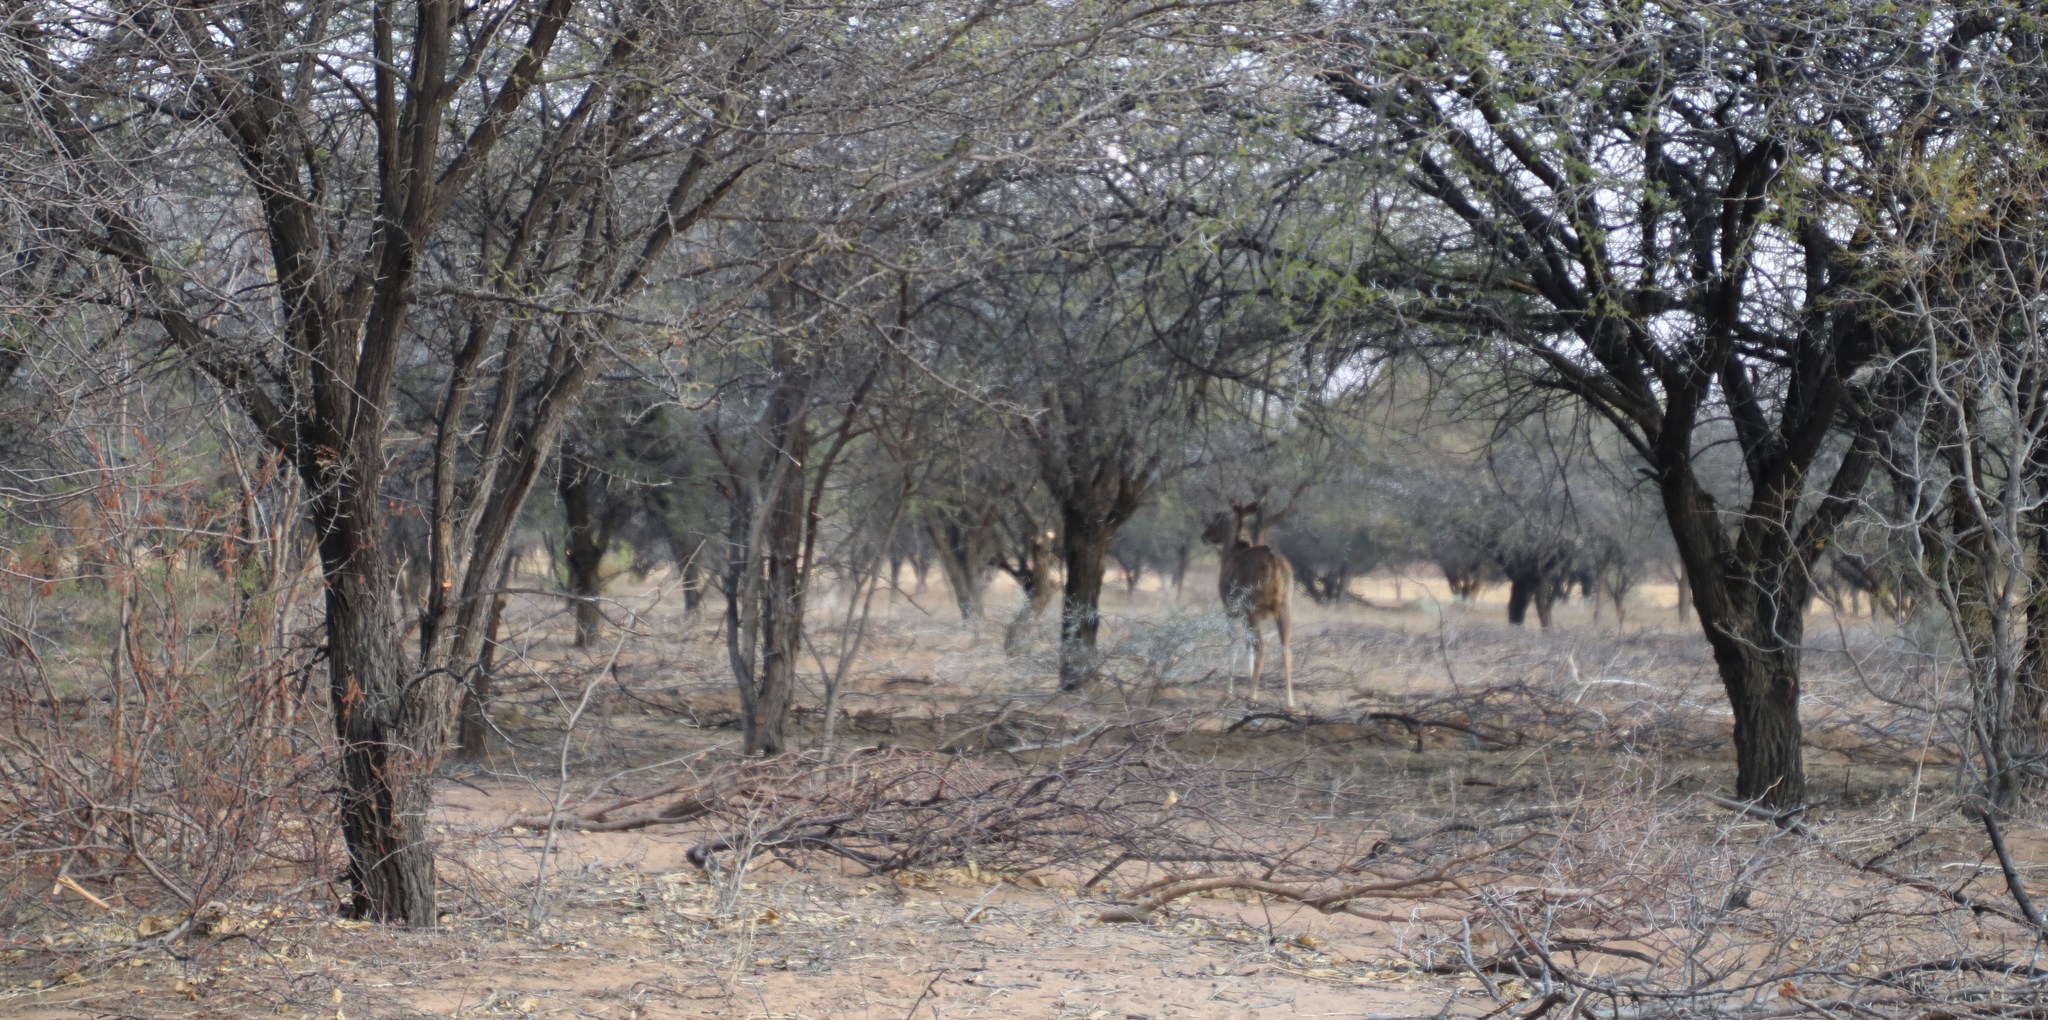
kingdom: Animalia
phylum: Chordata
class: Mammalia
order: Artiodactyla
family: Bovidae
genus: Tragelaphus
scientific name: Tragelaphus strepsiceros
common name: Greater kudu
